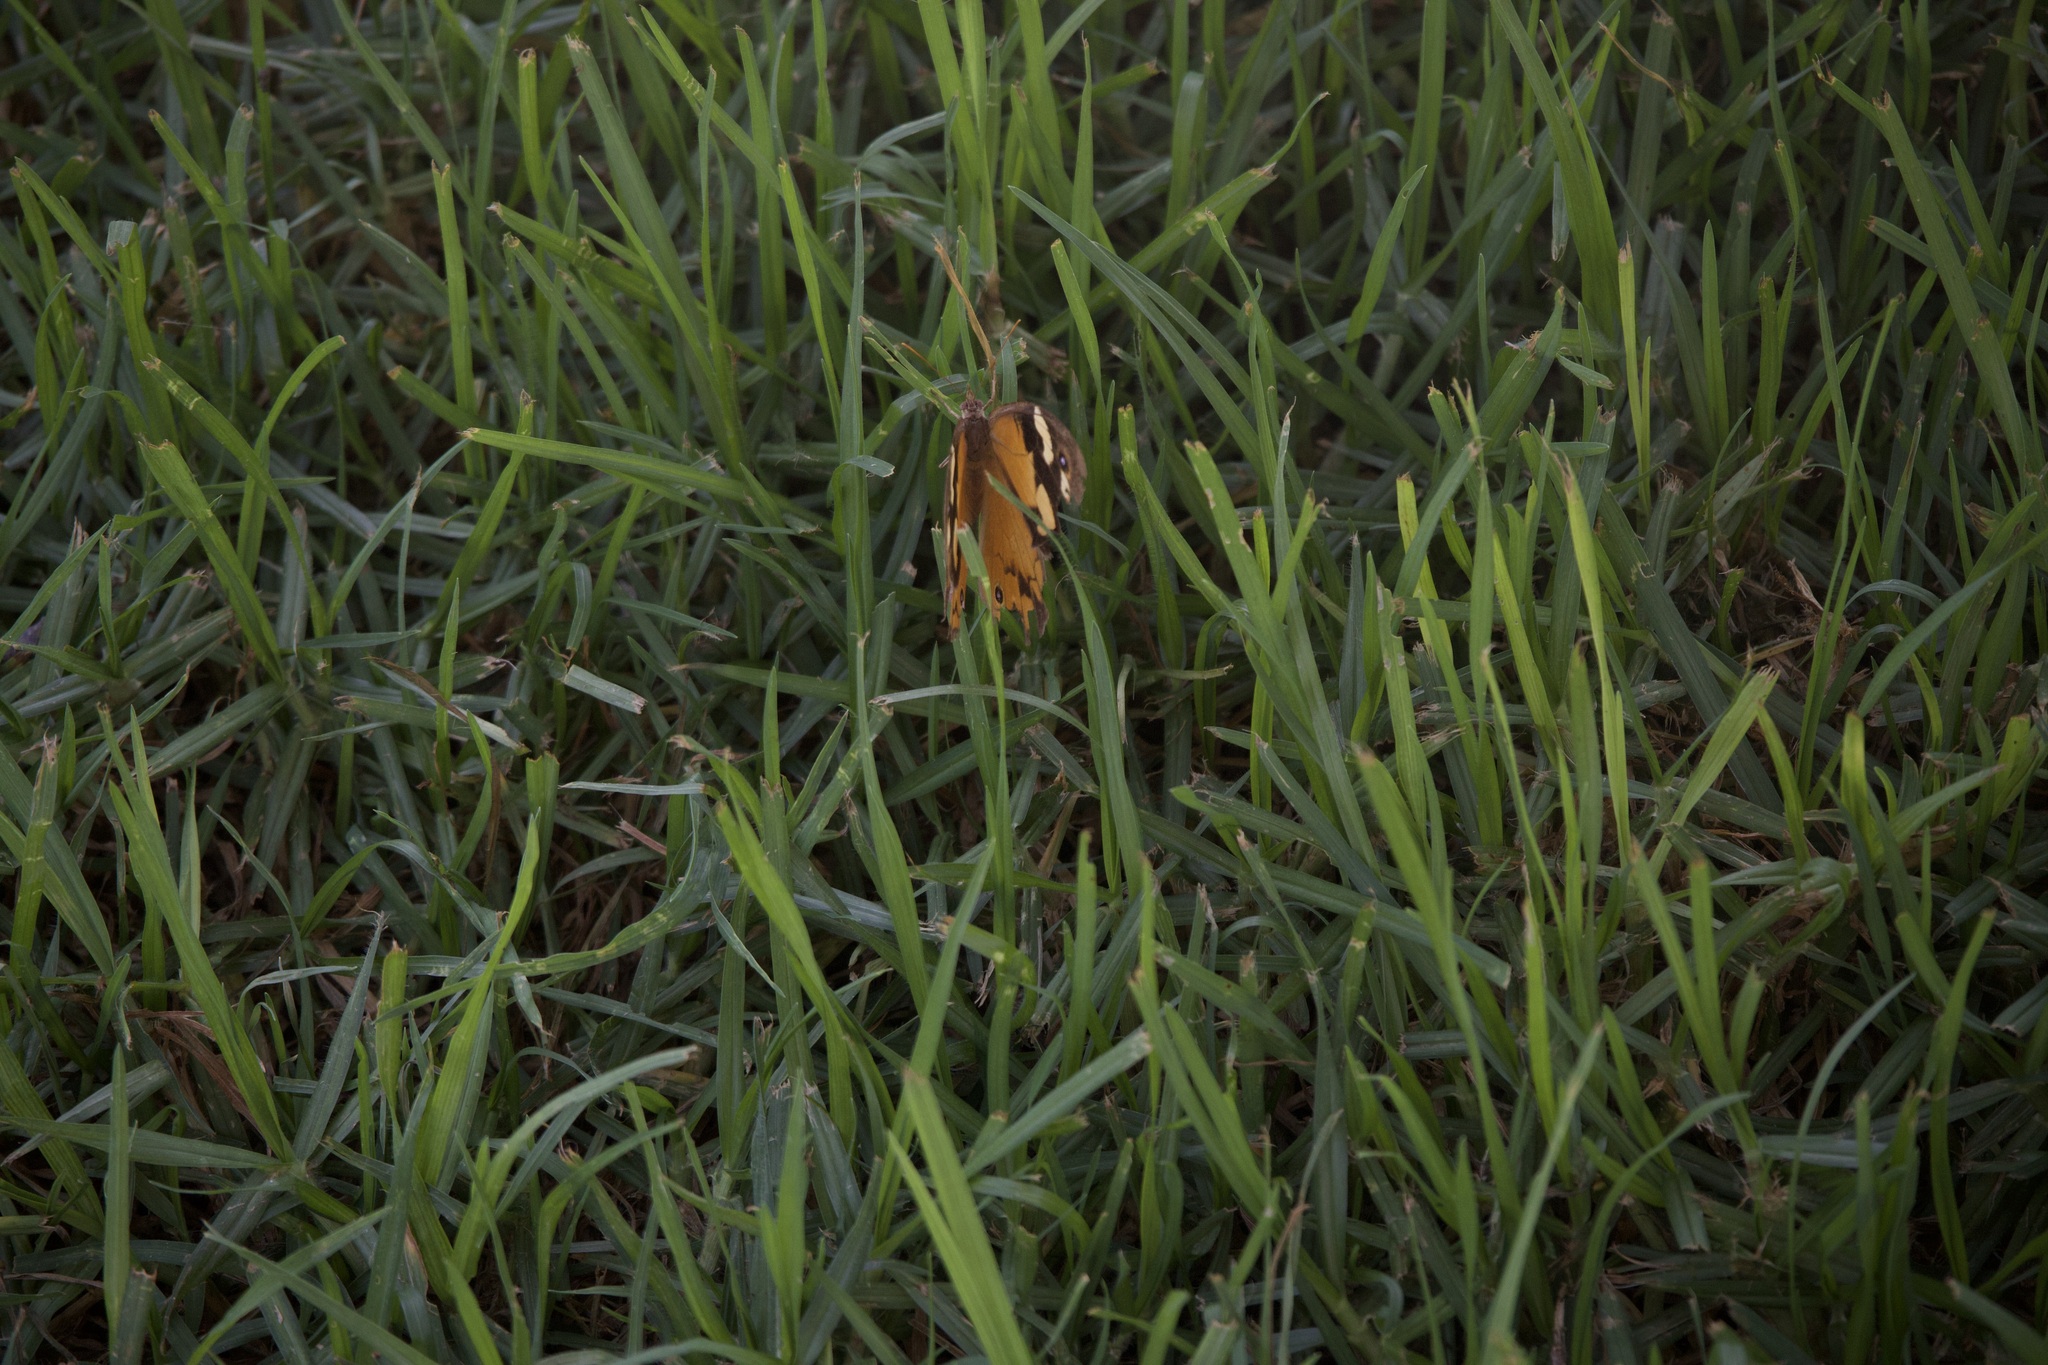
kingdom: Animalia
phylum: Arthropoda
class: Insecta
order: Lepidoptera
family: Nymphalidae
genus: Heteronympha
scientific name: Heteronympha merope
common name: Common brown
